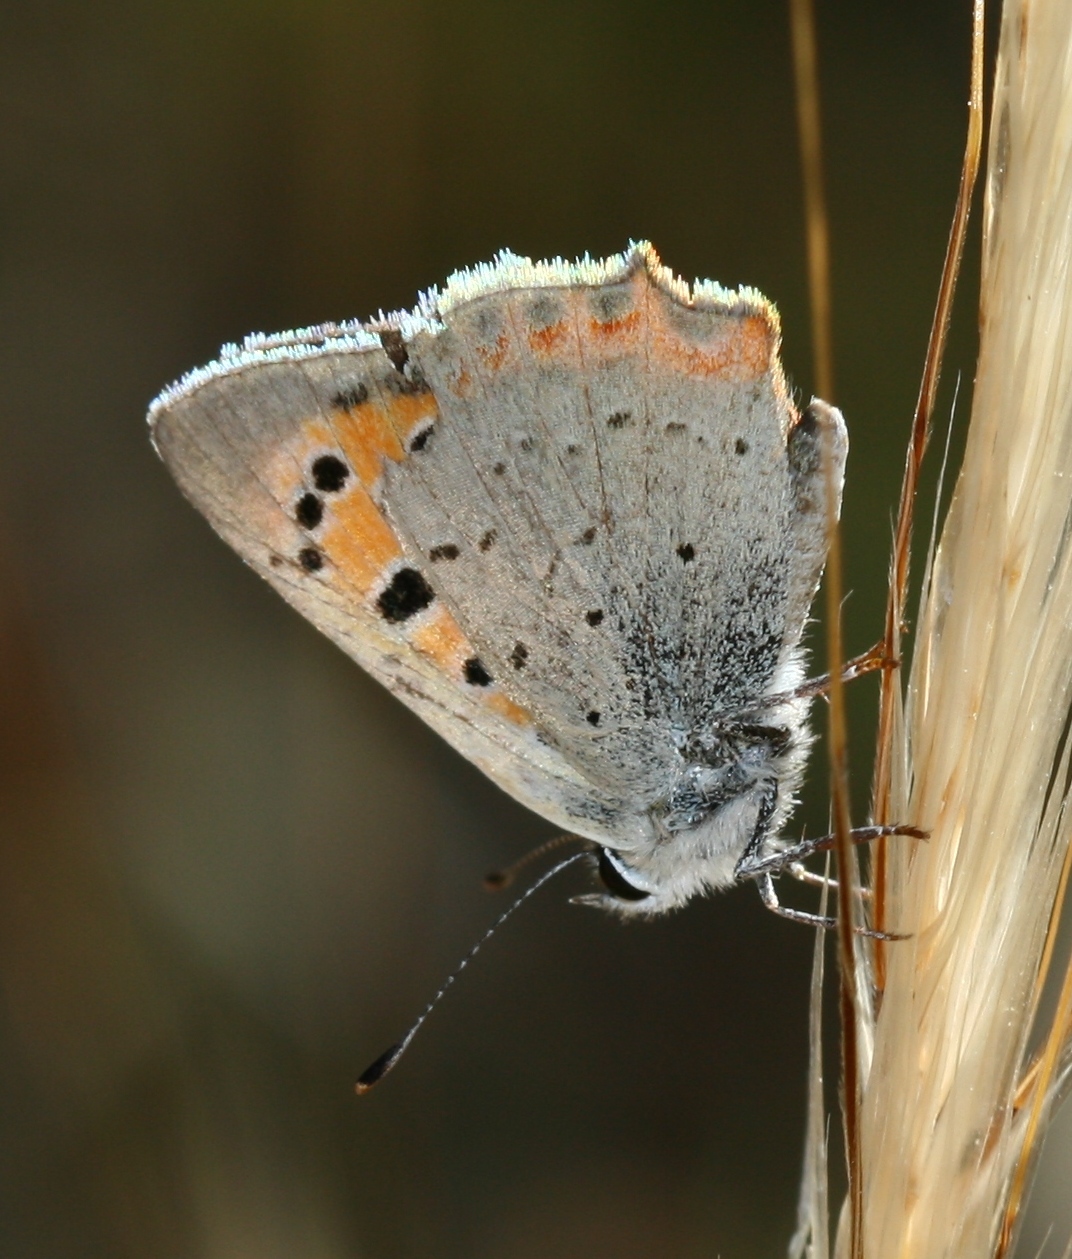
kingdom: Animalia
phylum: Arthropoda
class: Insecta
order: Lepidoptera
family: Lycaenidae
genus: Lycaena
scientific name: Lycaena phlaeas
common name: Small copper
